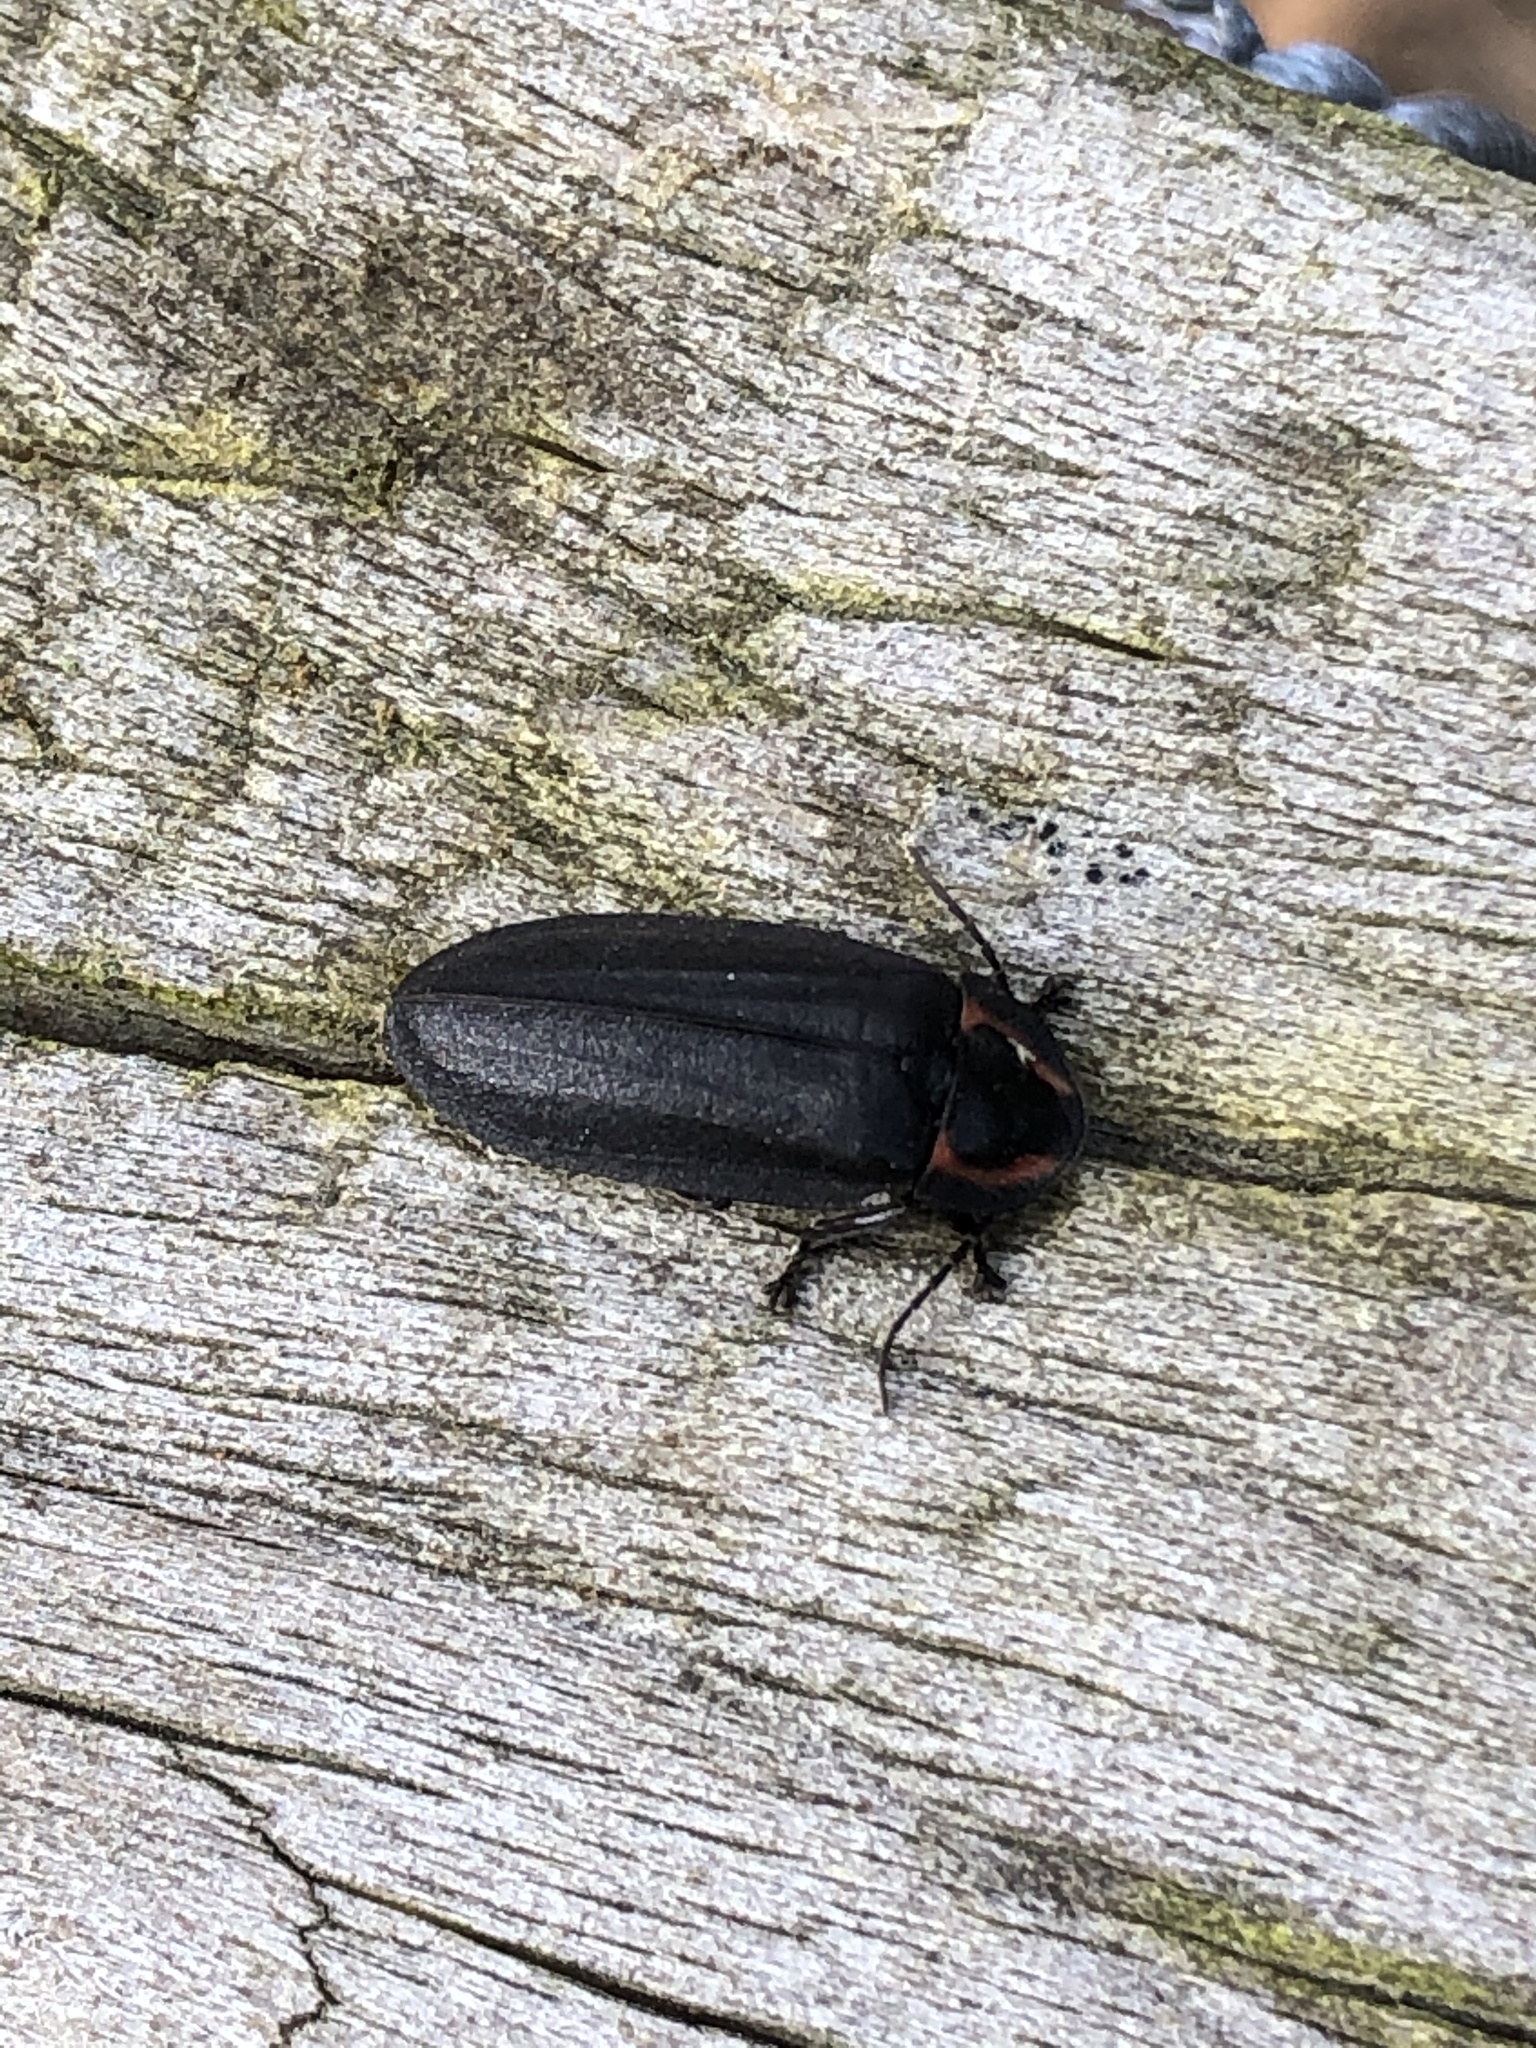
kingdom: Animalia
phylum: Arthropoda
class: Insecta
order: Coleoptera
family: Lampyridae
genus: Photinus
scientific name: Photinus californica
